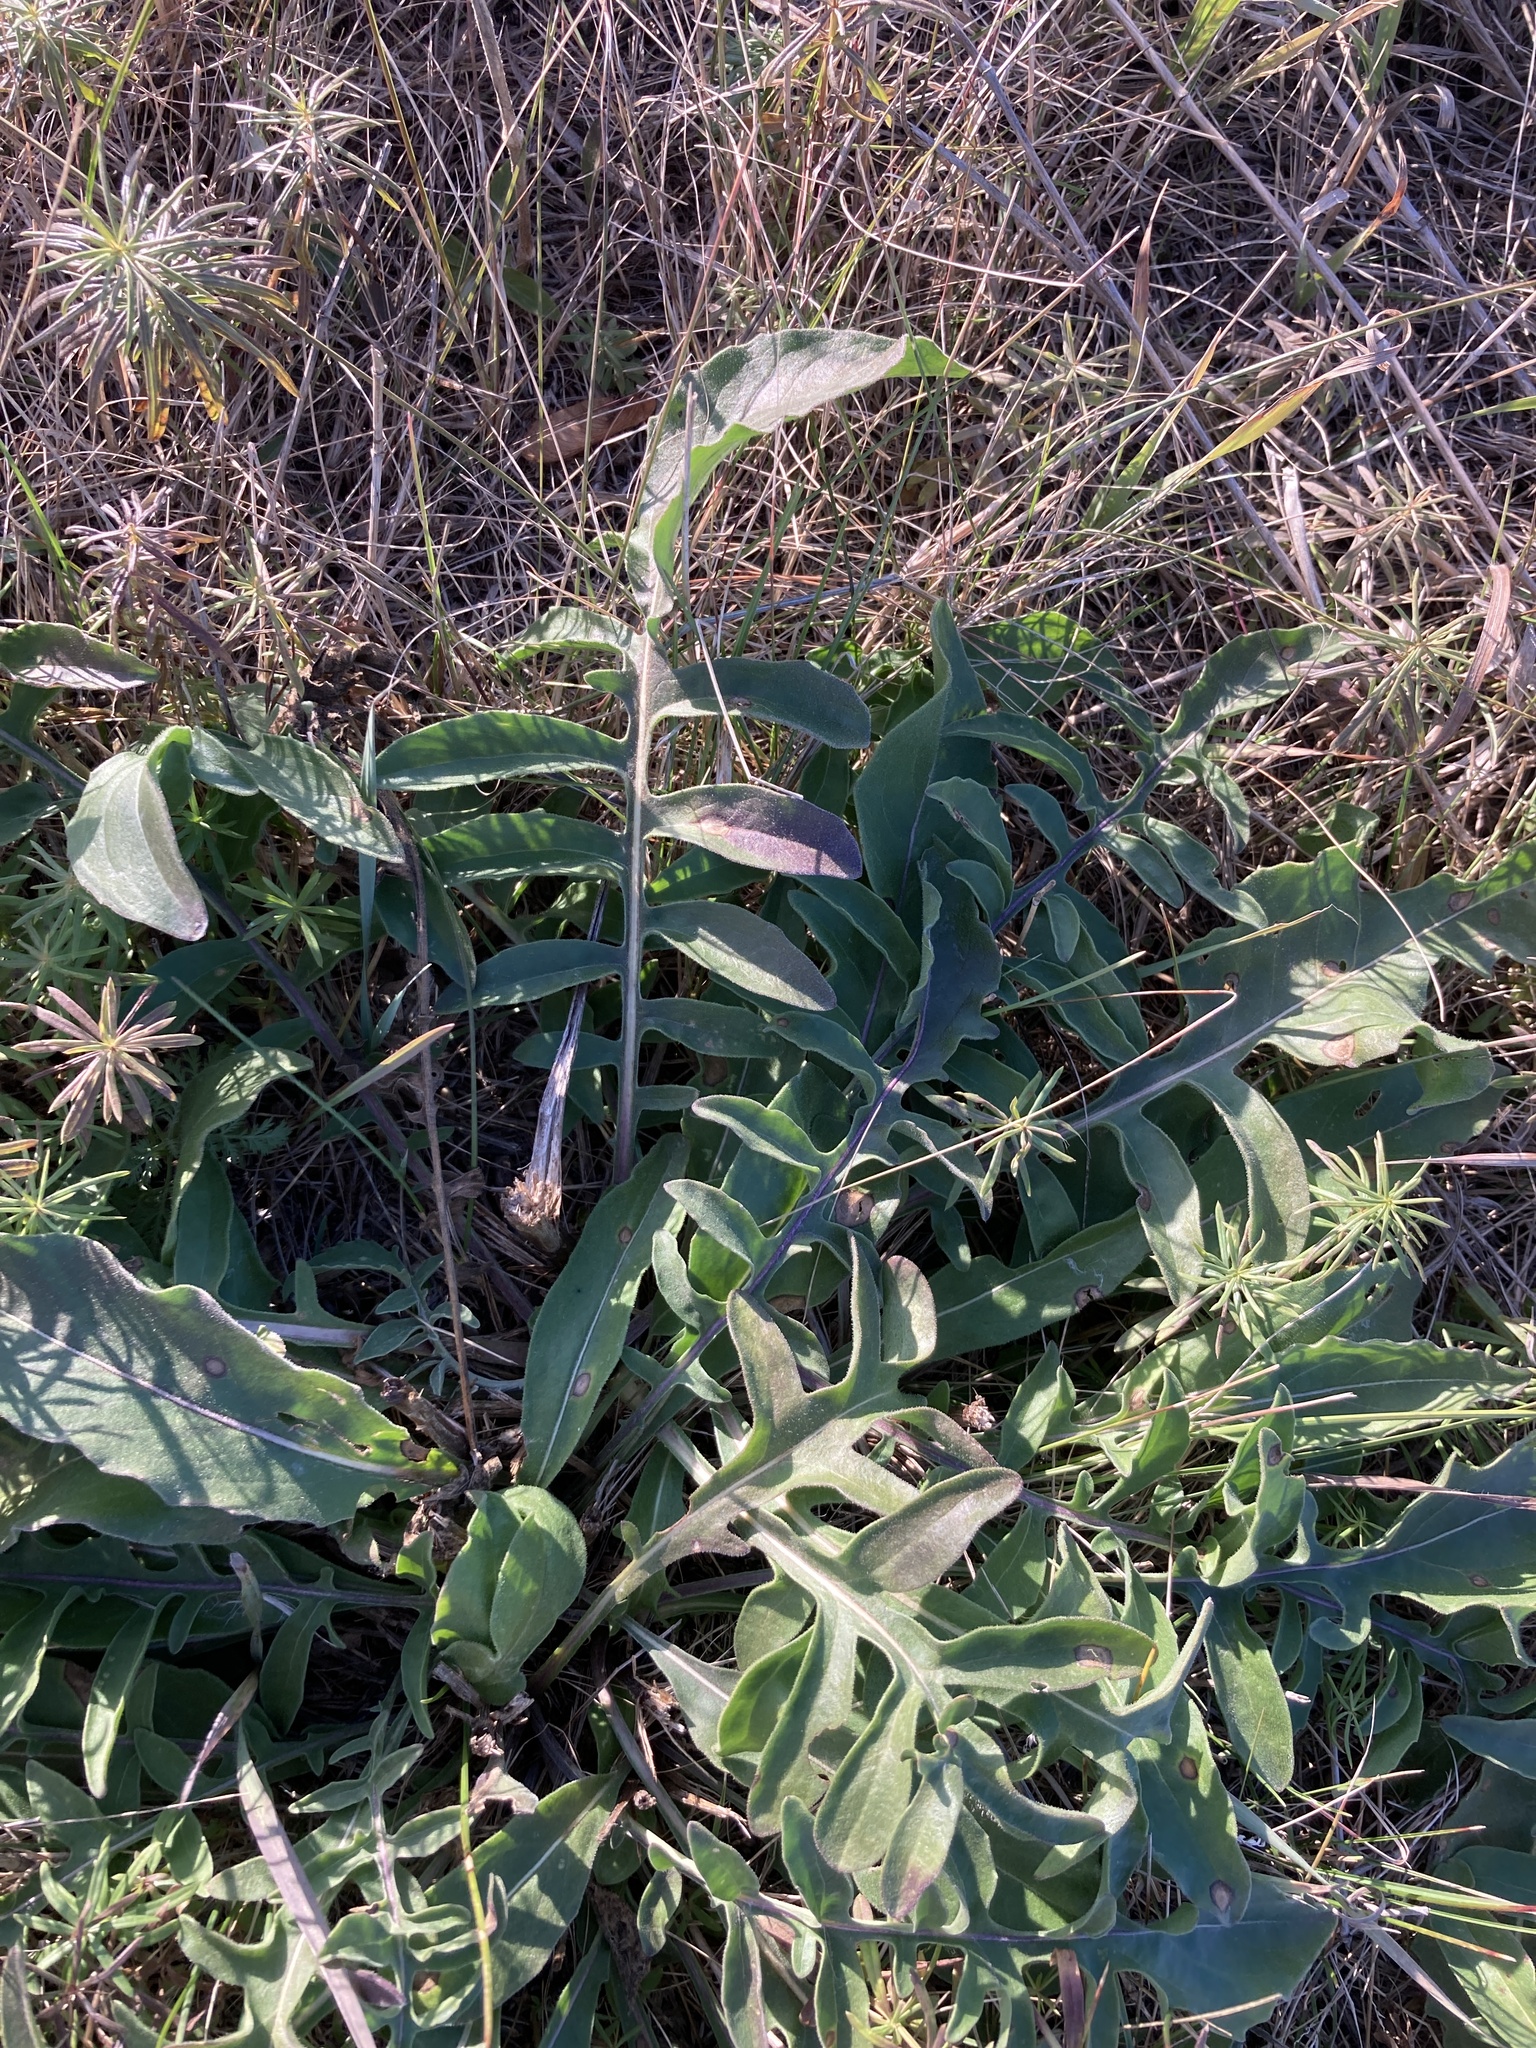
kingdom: Plantae
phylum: Tracheophyta
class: Magnoliopsida
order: Asterales
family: Asteraceae
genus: Centaurea
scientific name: Centaurea scabiosa
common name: Greater knapweed
